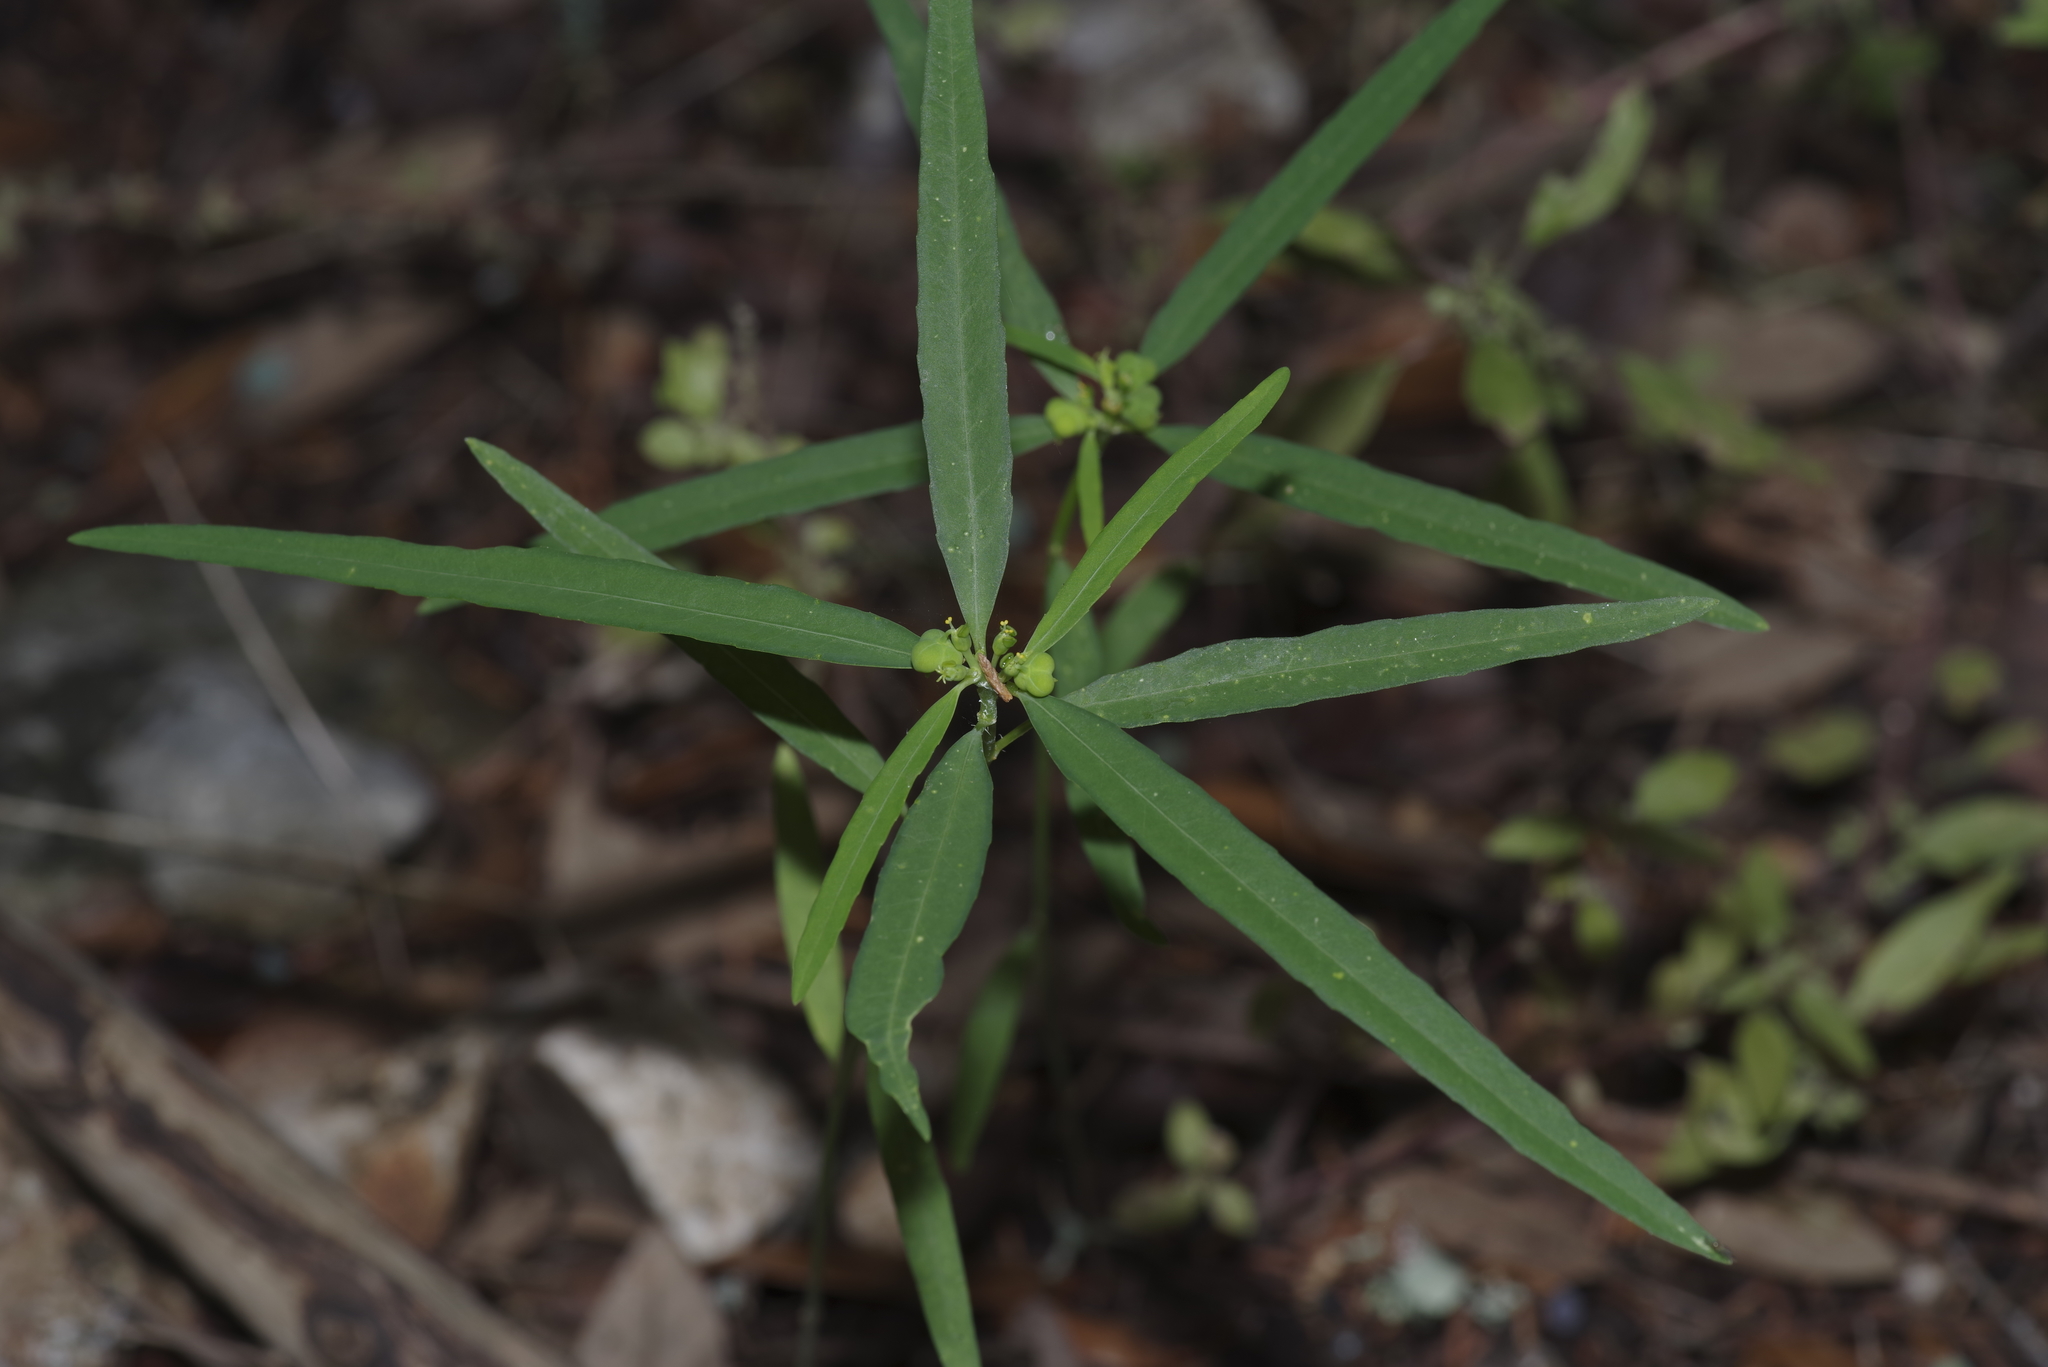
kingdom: Plantae
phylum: Tracheophyta
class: Magnoliopsida
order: Malpighiales
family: Euphorbiaceae
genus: Euphorbia
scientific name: Euphorbia heterophylla
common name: Mexican fireplant
